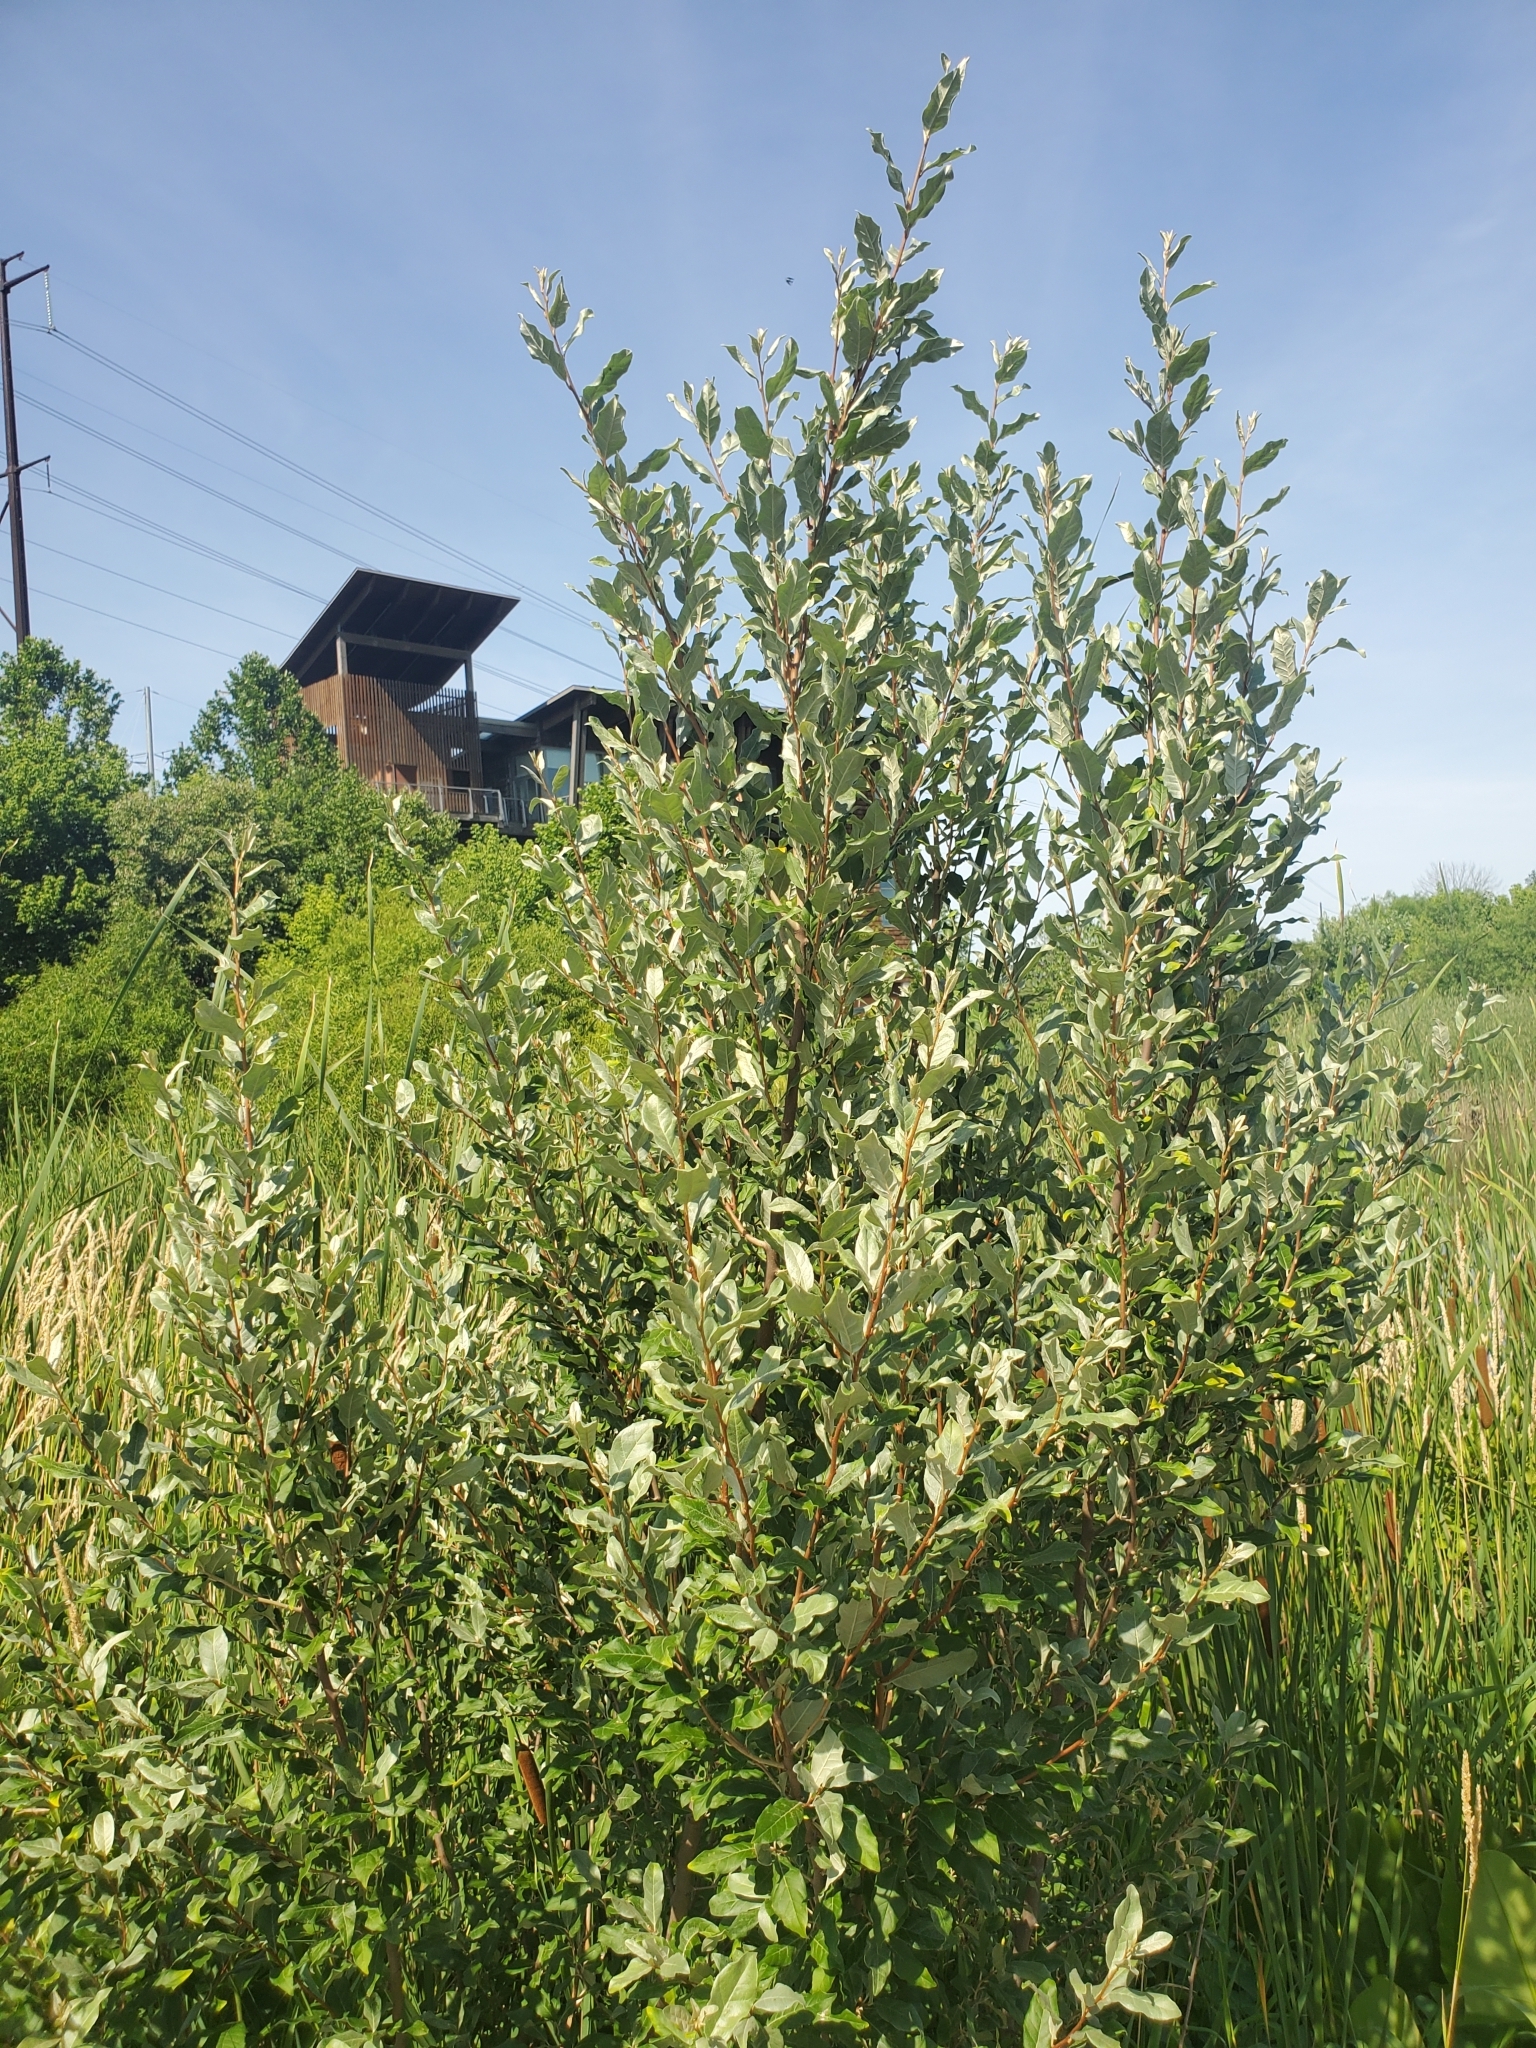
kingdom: Plantae
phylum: Tracheophyta
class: Magnoliopsida
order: Rosales
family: Elaeagnaceae
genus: Elaeagnus
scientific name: Elaeagnus umbellata
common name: Autumn olive
